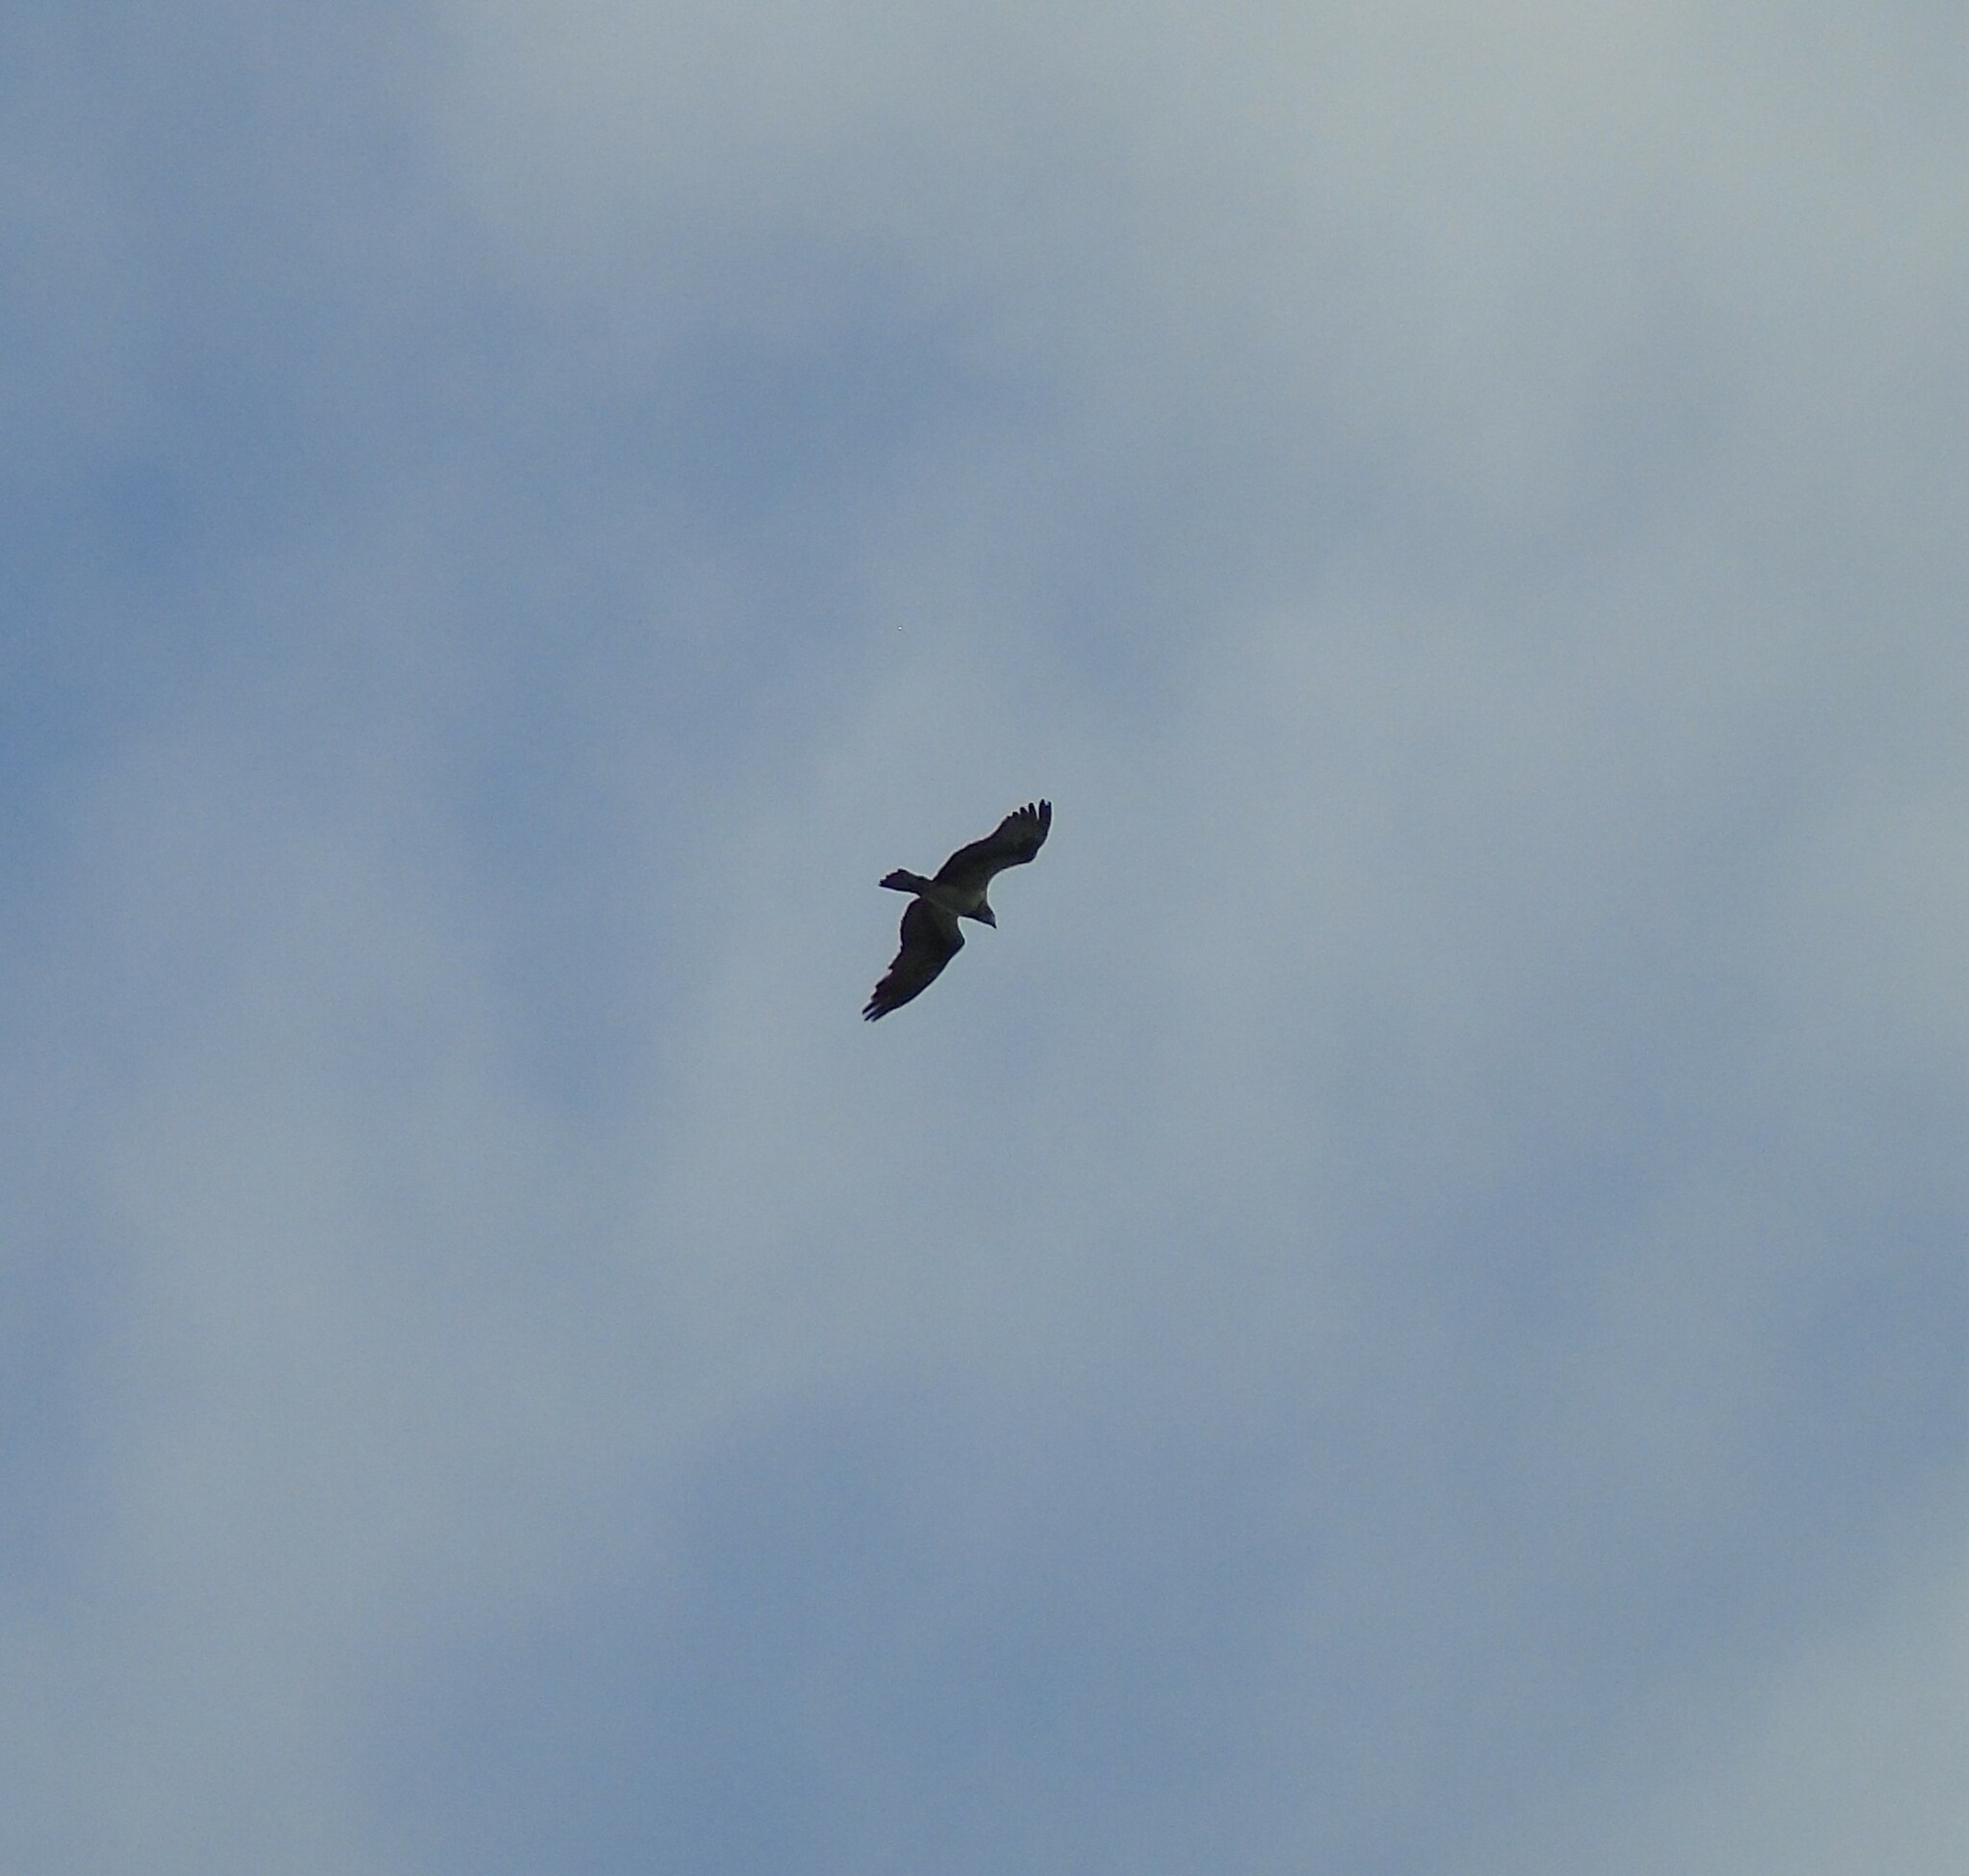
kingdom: Animalia
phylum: Chordata
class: Aves
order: Accipitriformes
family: Pandionidae
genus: Pandion
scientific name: Pandion haliaetus
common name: Osprey
